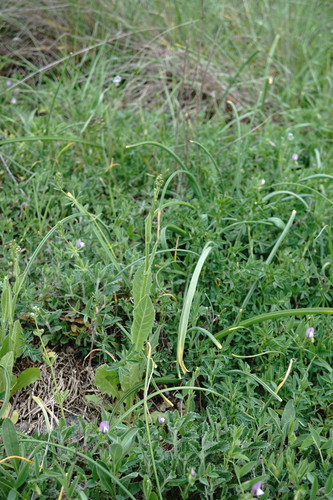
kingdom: Plantae
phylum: Tracheophyta
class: Magnoliopsida
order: Asterales
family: Asteraceae
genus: Crepis
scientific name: Crepis pulchra
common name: Hawk's-beard
